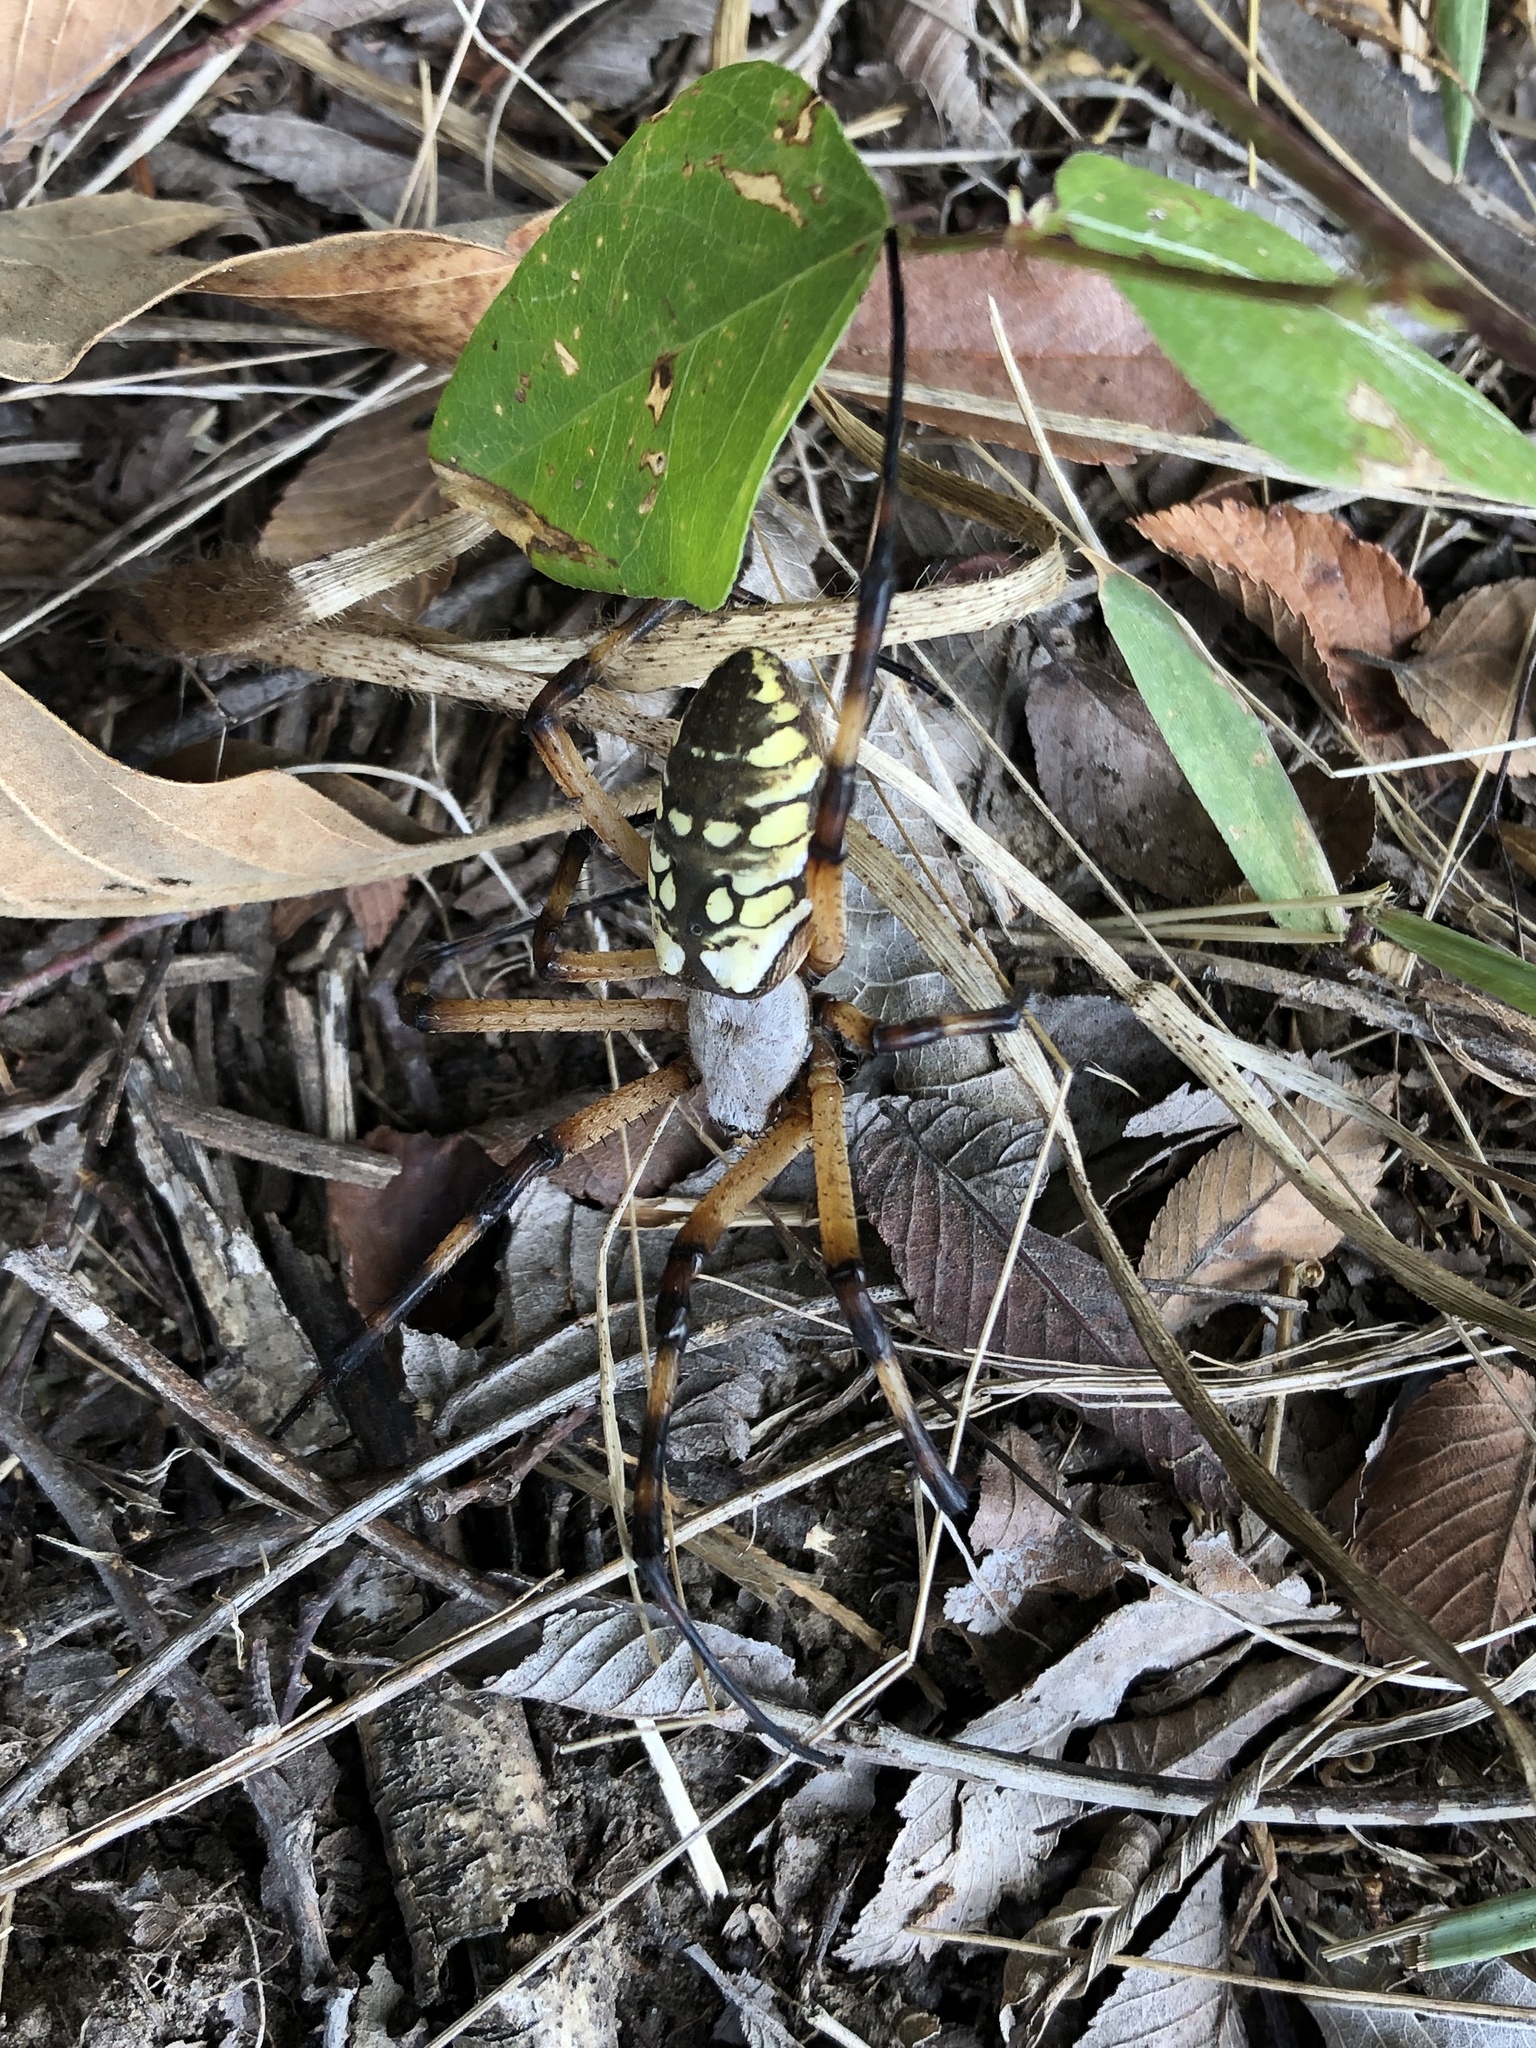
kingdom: Animalia
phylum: Arthropoda
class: Arachnida
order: Araneae
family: Araneidae
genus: Argiope
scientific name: Argiope aurantia
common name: Orb weavers
